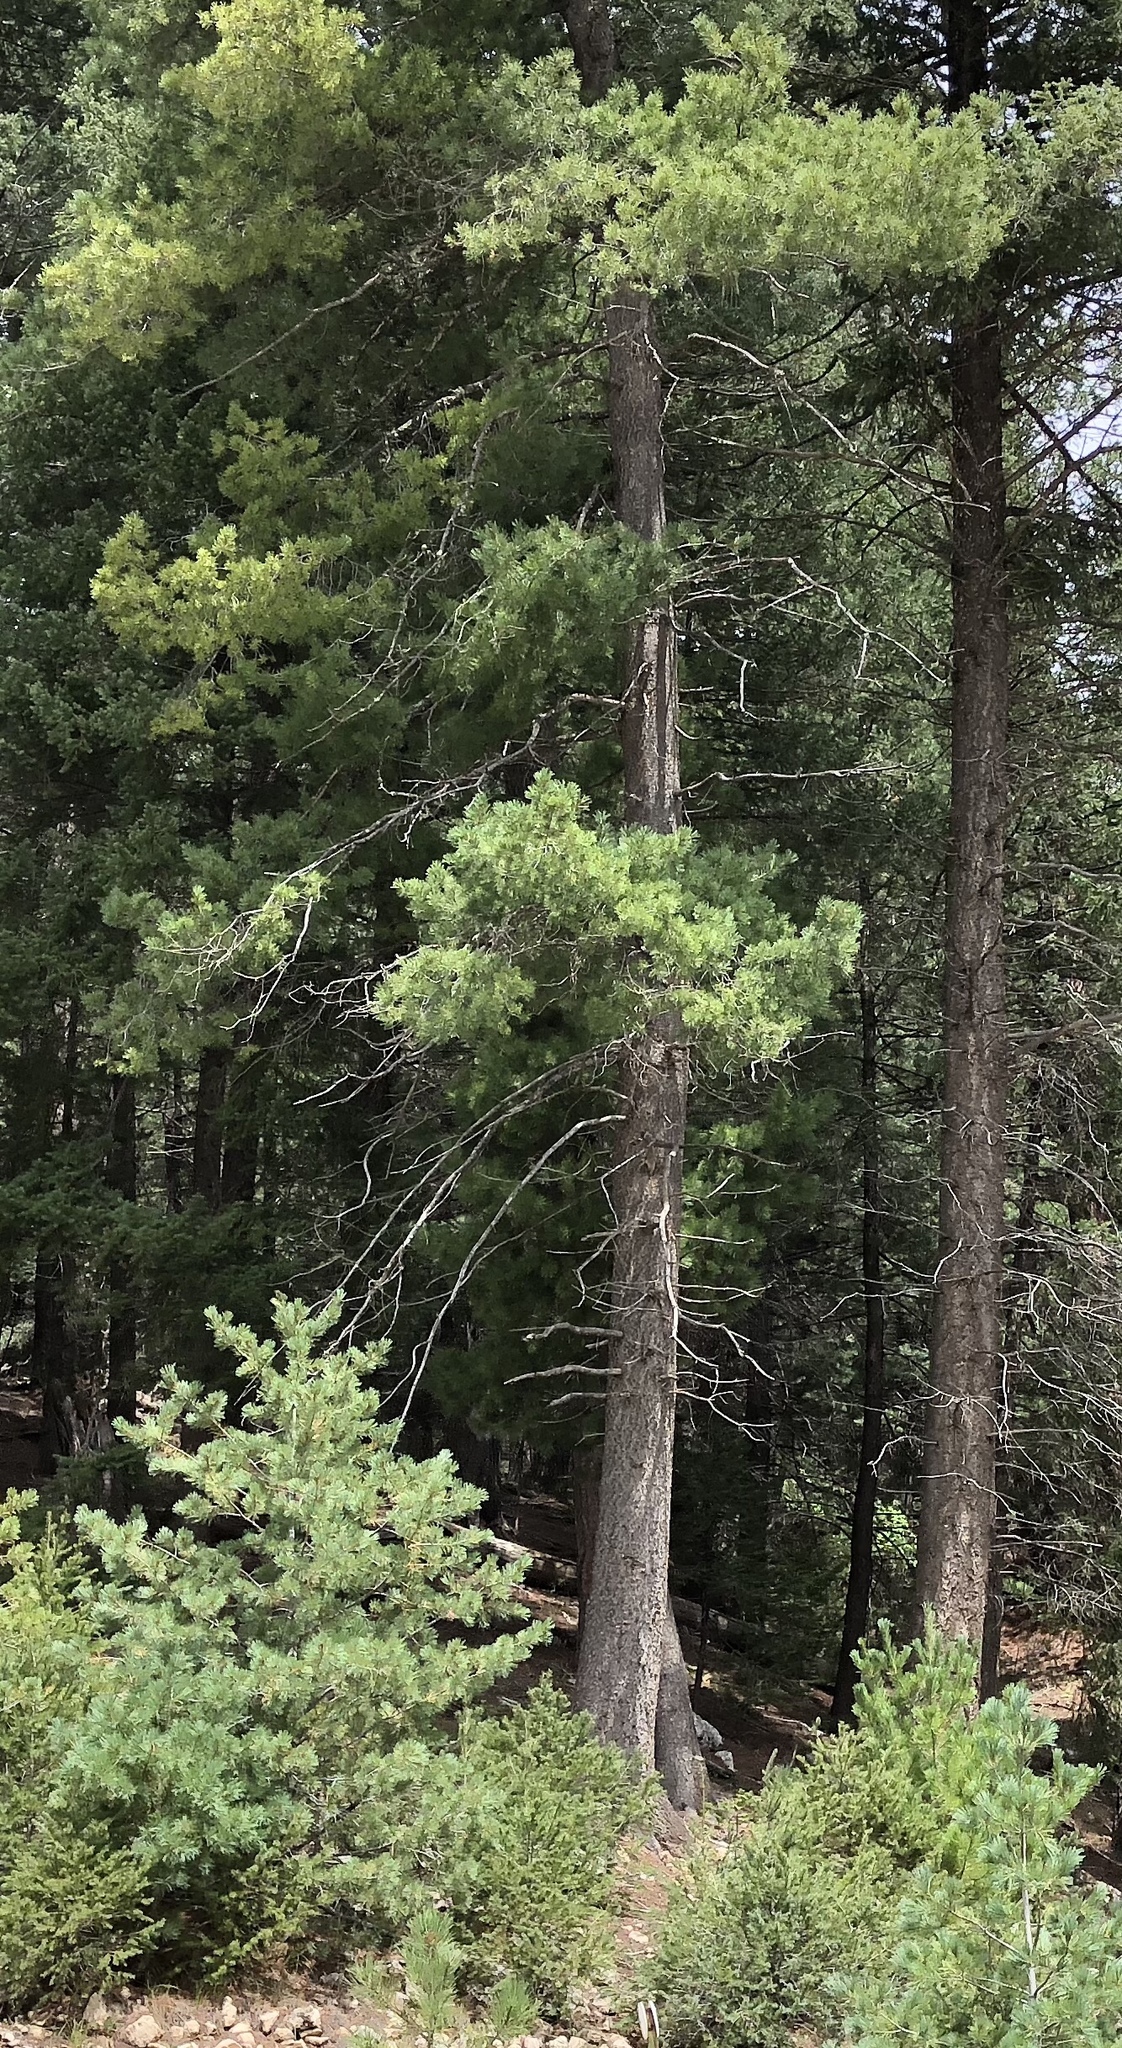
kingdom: Plantae
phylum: Tracheophyta
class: Pinopsida
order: Pinales
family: Pinaceae
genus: Pinus
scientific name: Pinus strobiformis
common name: Southwestern white pine
